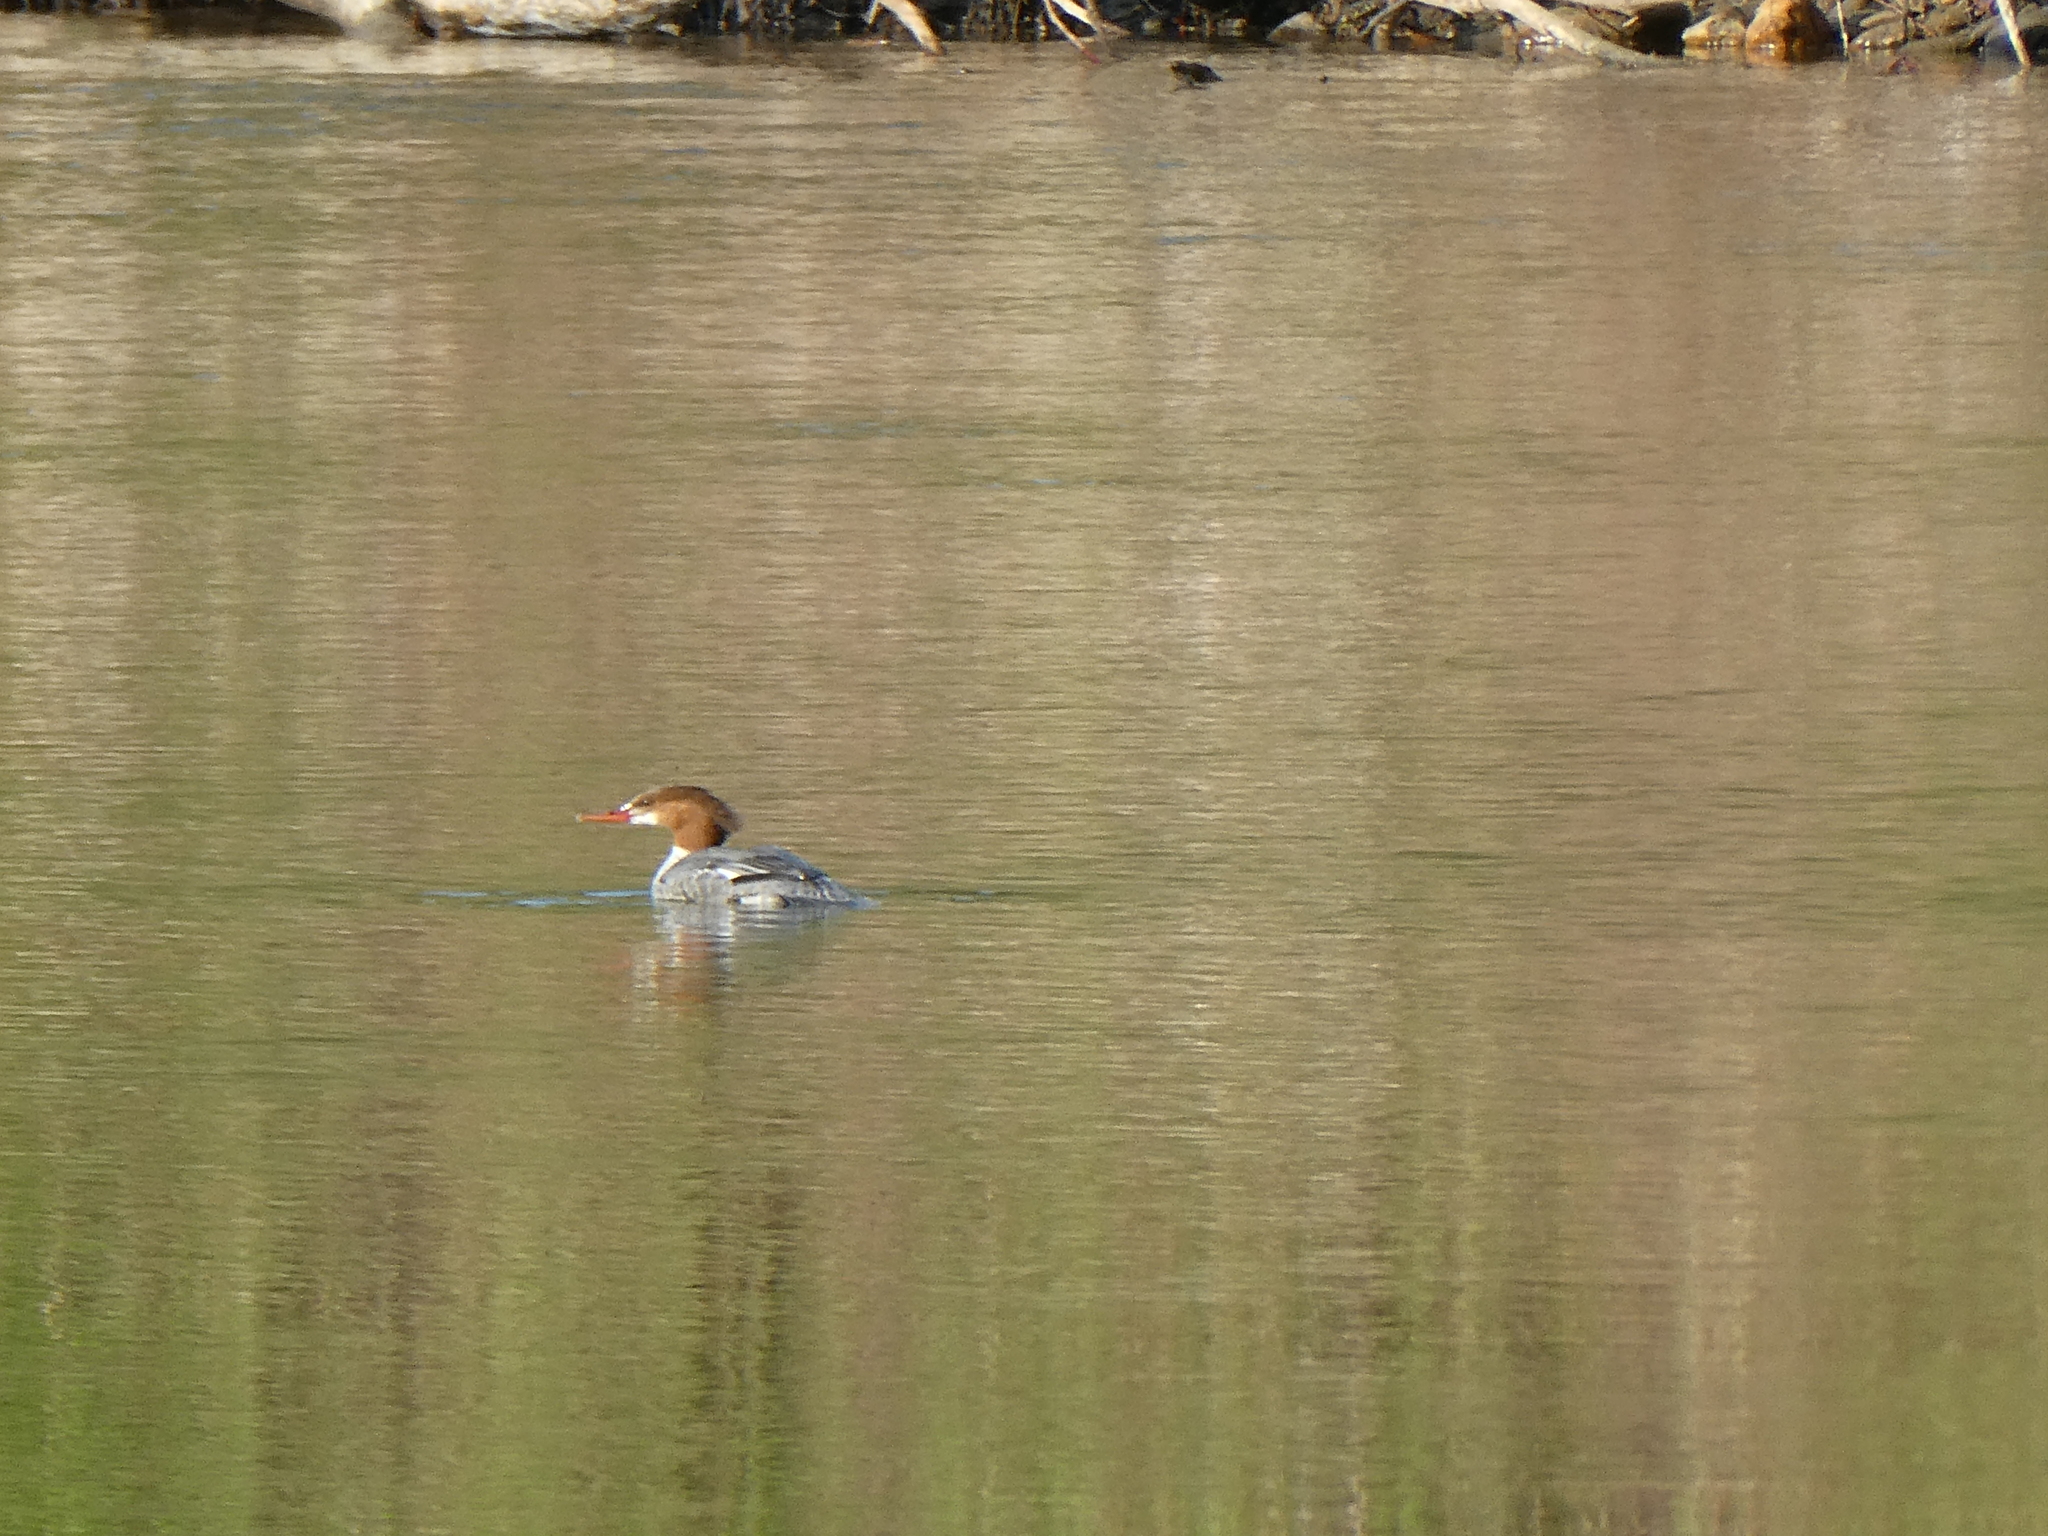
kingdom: Animalia
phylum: Chordata
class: Aves
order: Anseriformes
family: Anatidae
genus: Mergus
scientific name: Mergus merganser
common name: Common merganser
